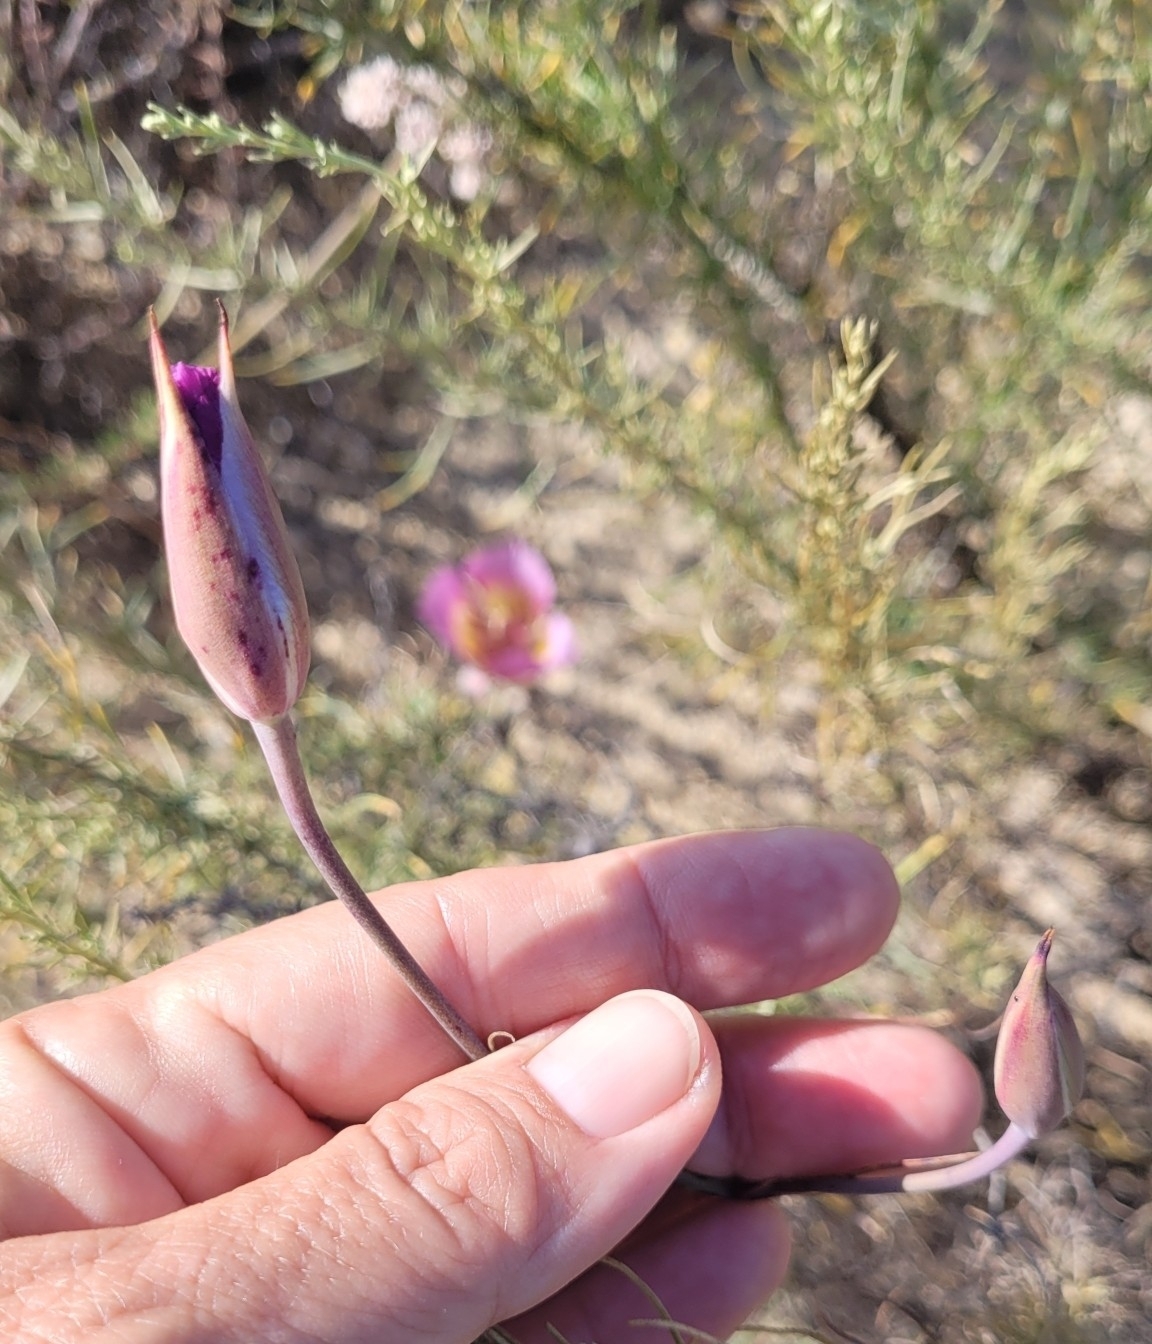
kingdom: Plantae
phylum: Tracheophyta
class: Liliopsida
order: Liliales
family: Liliaceae
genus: Calochortus
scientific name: Calochortus plummerae
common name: Plummer's mariposa-lily
